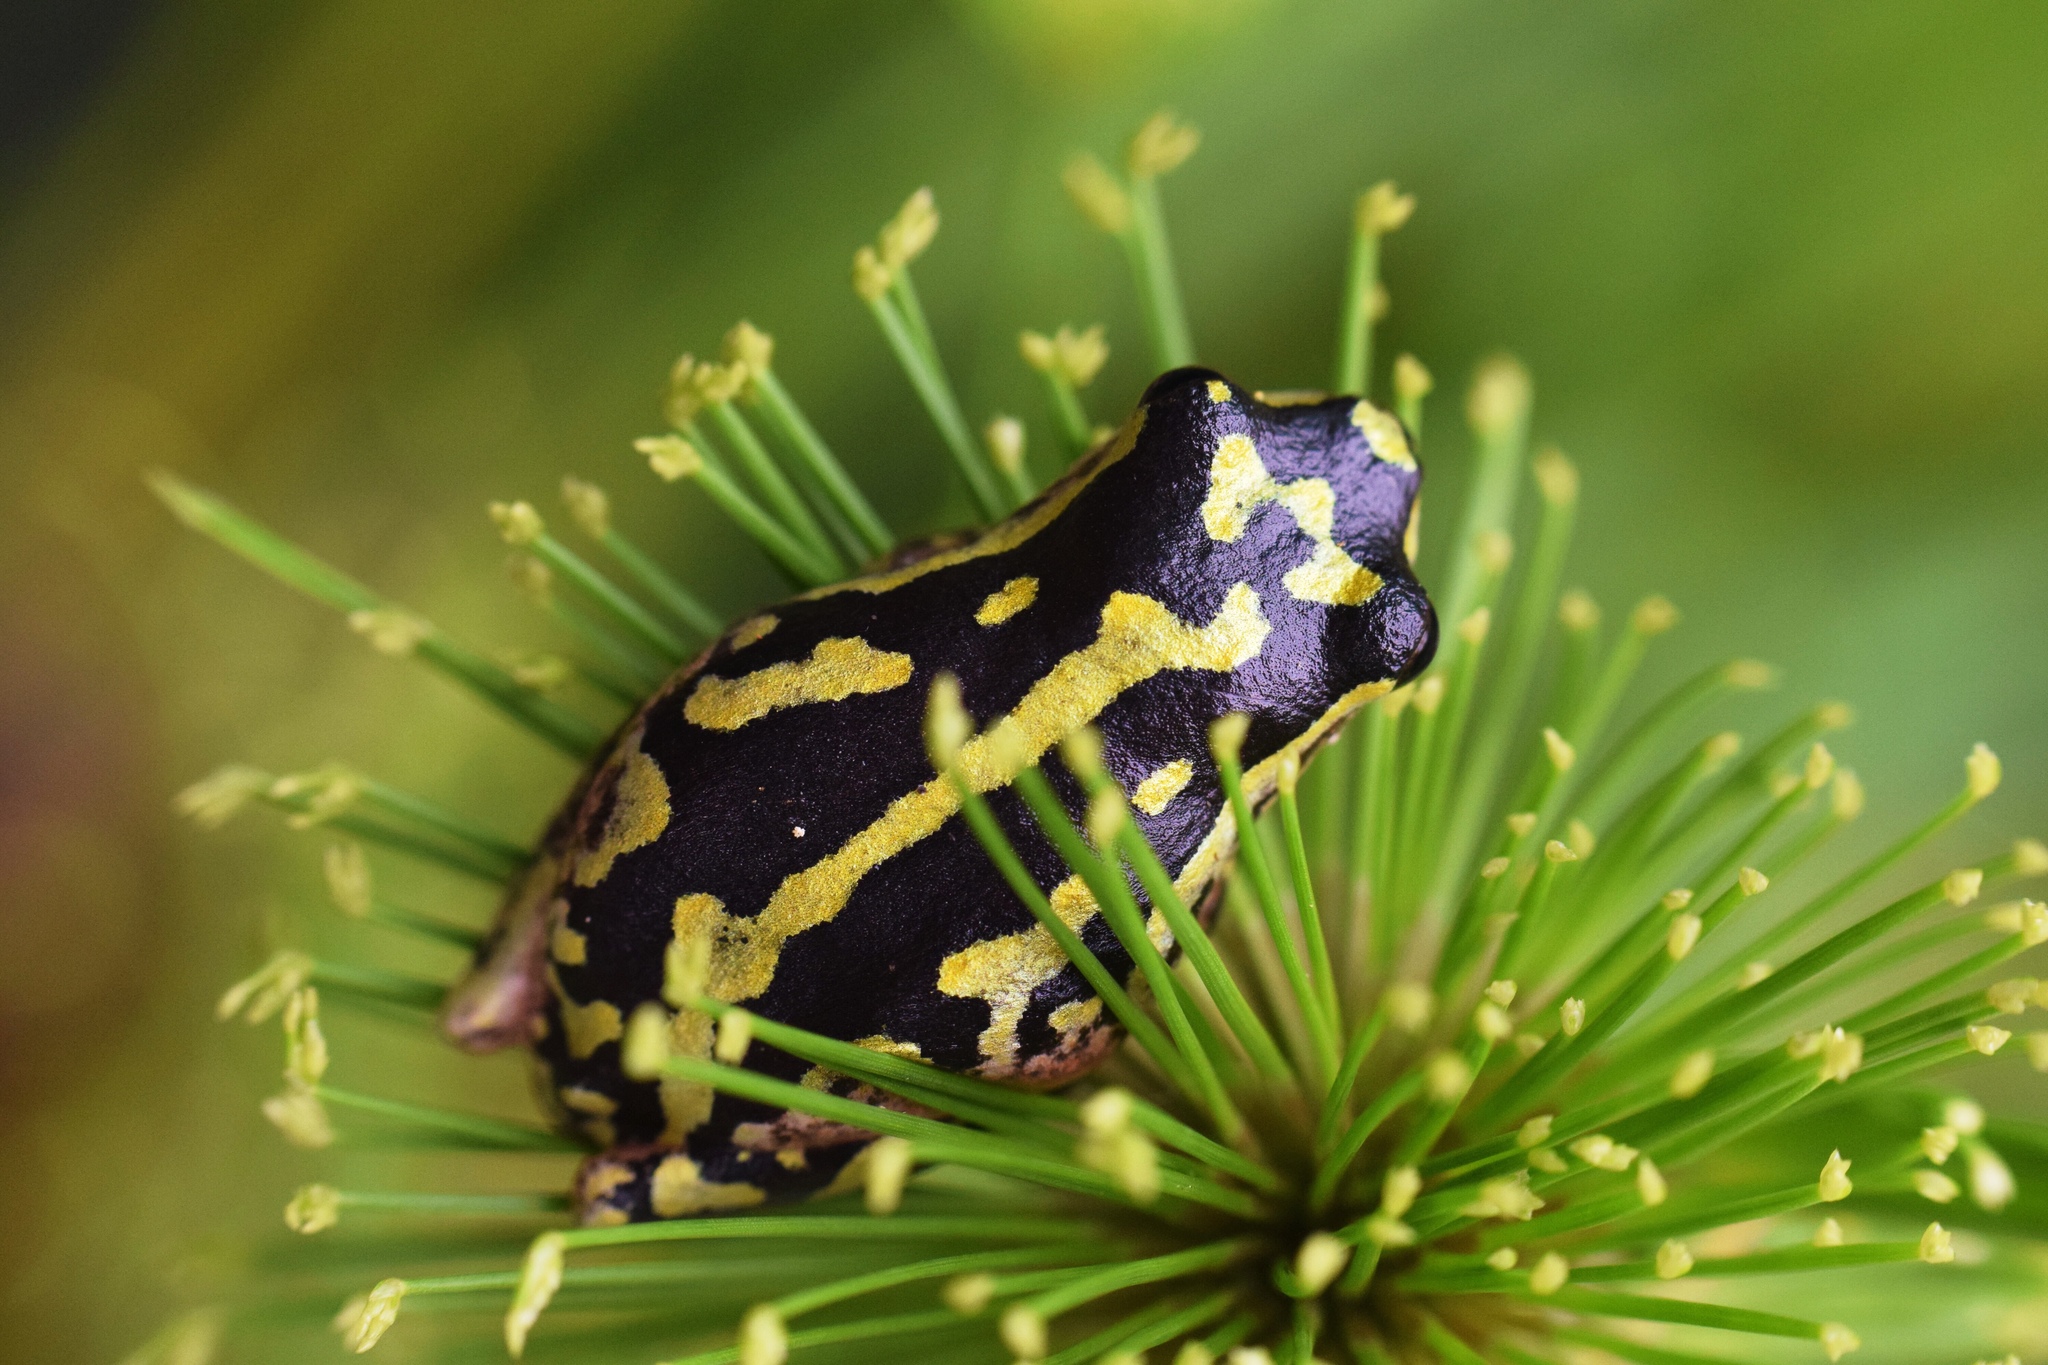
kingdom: Animalia
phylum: Chordata
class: Amphibia
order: Anura
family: Hyperoliidae
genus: Hyperolius
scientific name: Hyperolius marmoratus
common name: Painted reed frog
